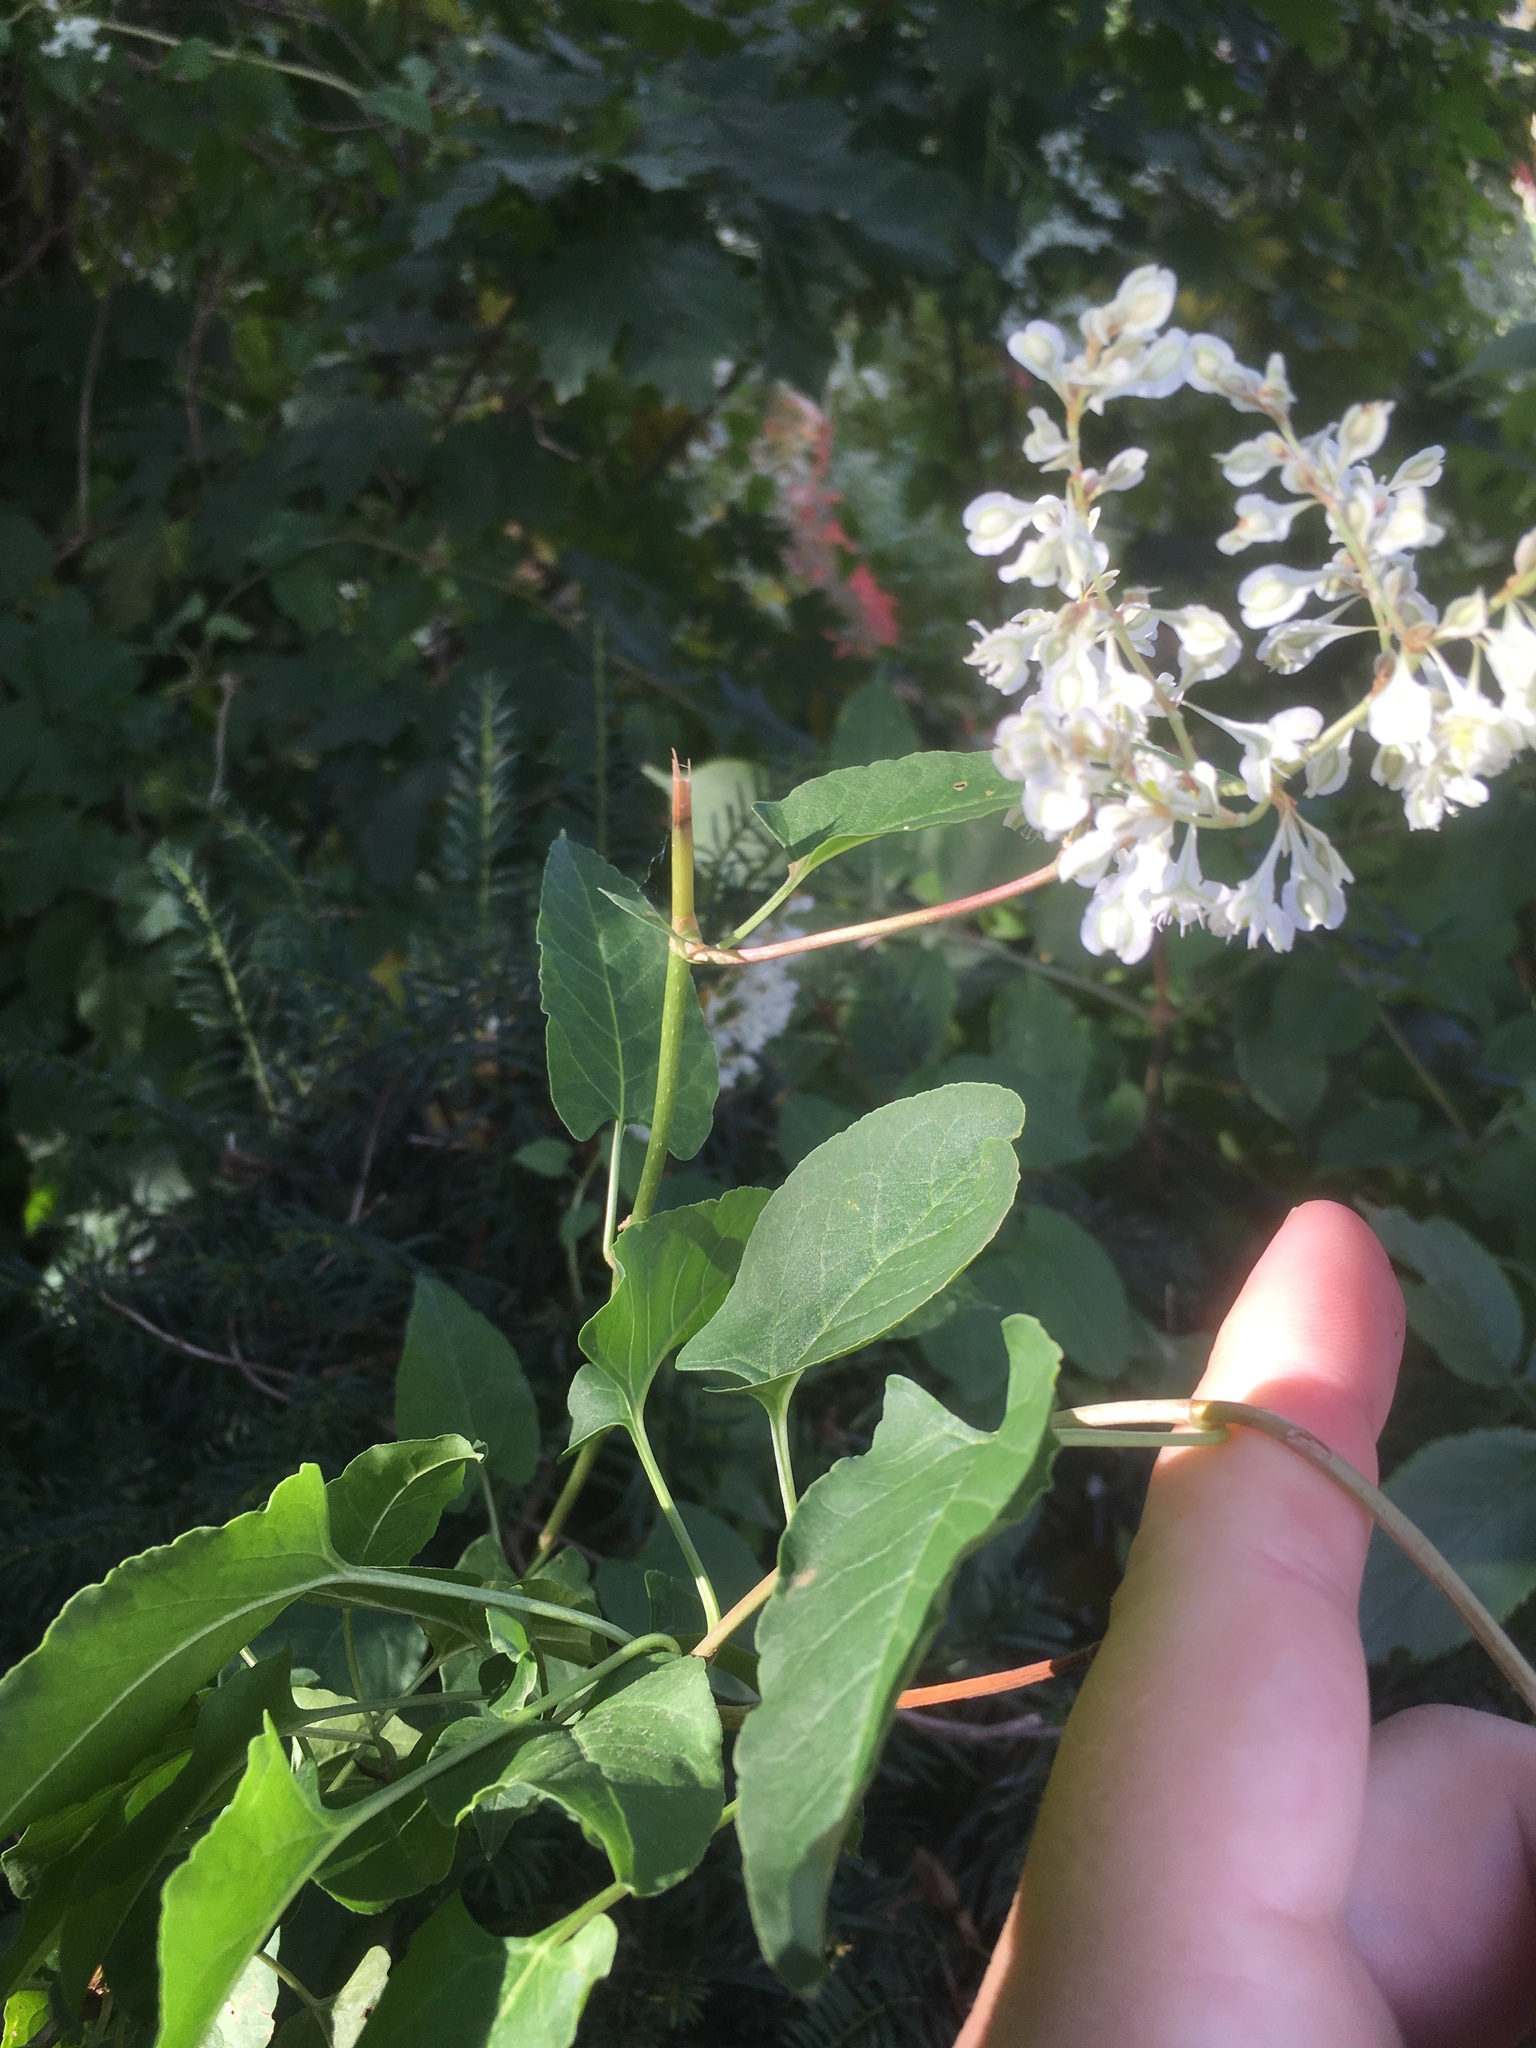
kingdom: Plantae
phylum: Tracheophyta
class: Magnoliopsida
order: Caryophyllales
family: Polygonaceae
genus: Fallopia
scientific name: Fallopia baldschuanica
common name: Russian-vine
